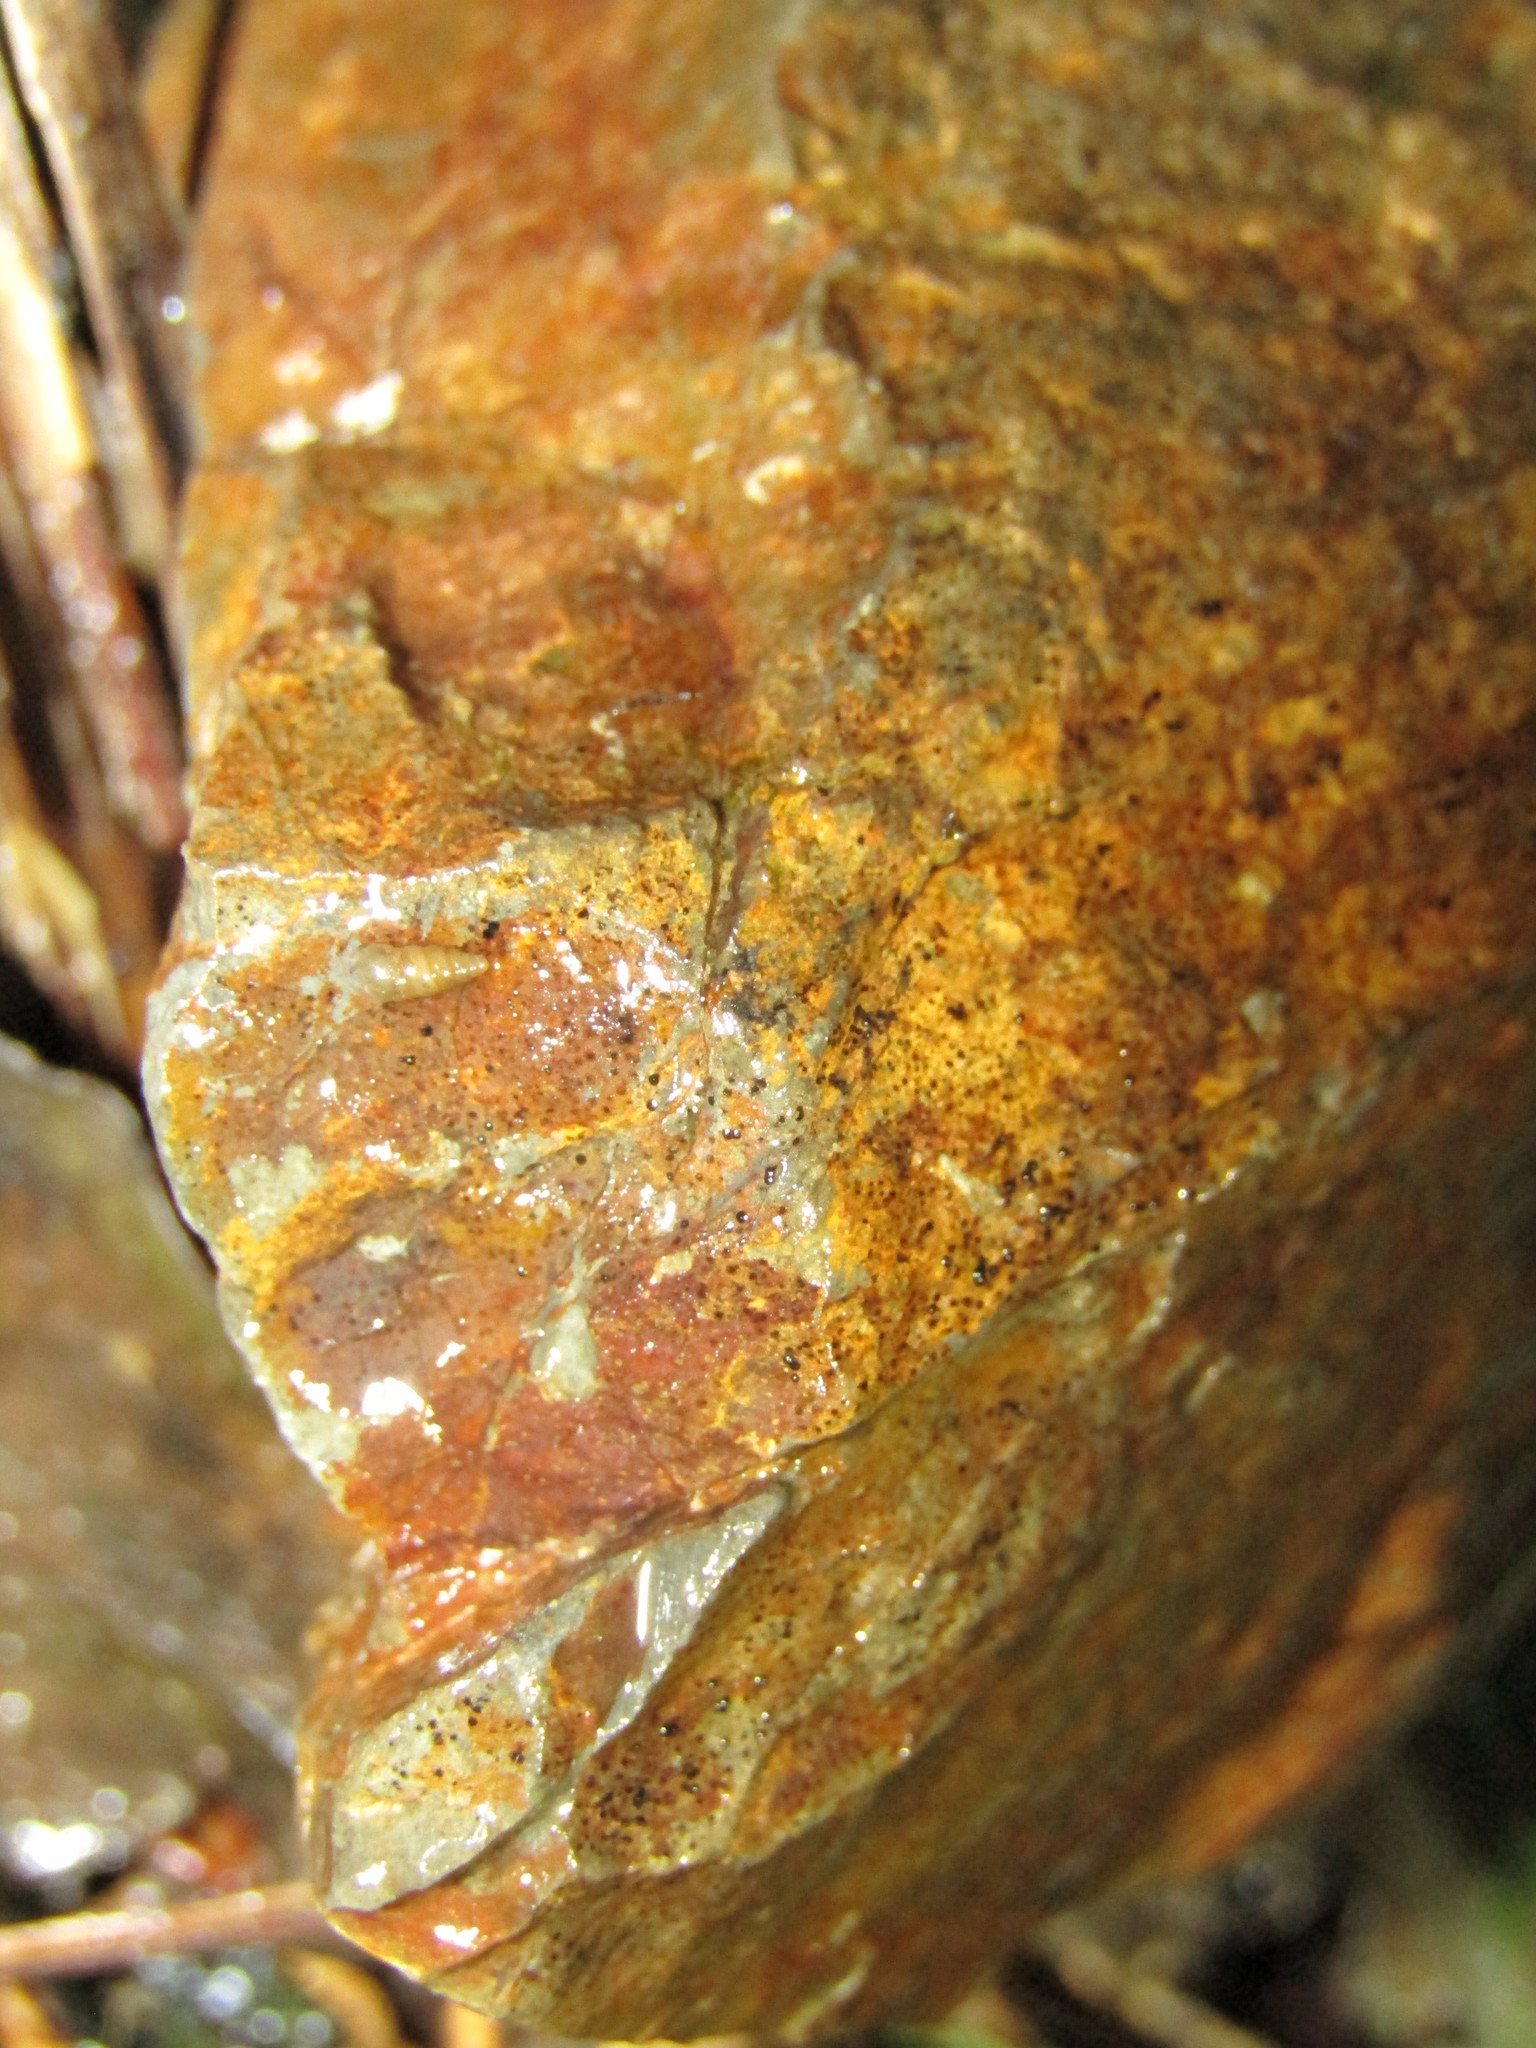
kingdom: Animalia
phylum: Mollusca
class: Gastropoda
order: Littorinimorpha
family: Tateidae
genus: Potamopyrgus
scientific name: Potamopyrgus oppidanus
